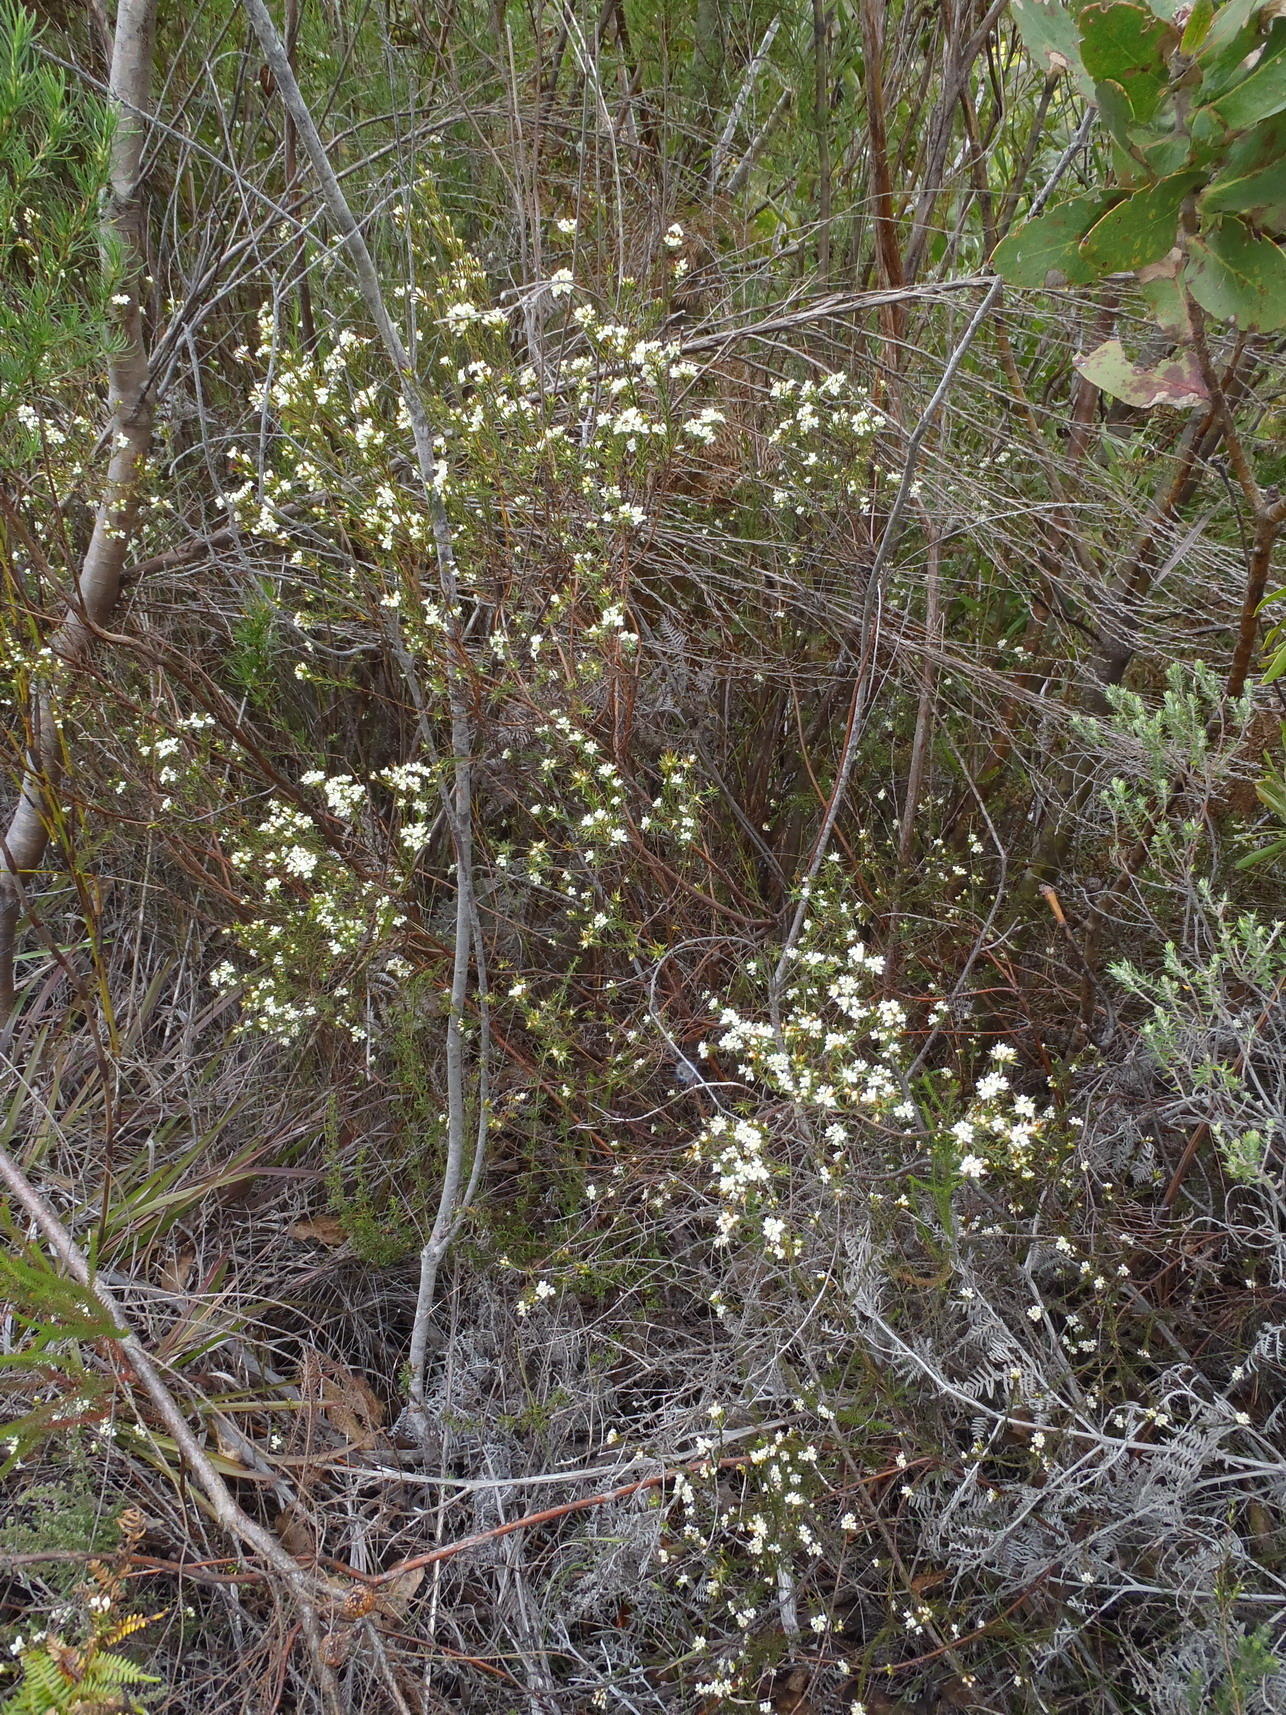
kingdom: Plantae
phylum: Tracheophyta
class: Magnoliopsida
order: Malvales
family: Thymelaeaceae
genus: Lachnaea
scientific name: Lachnaea diosmoides
